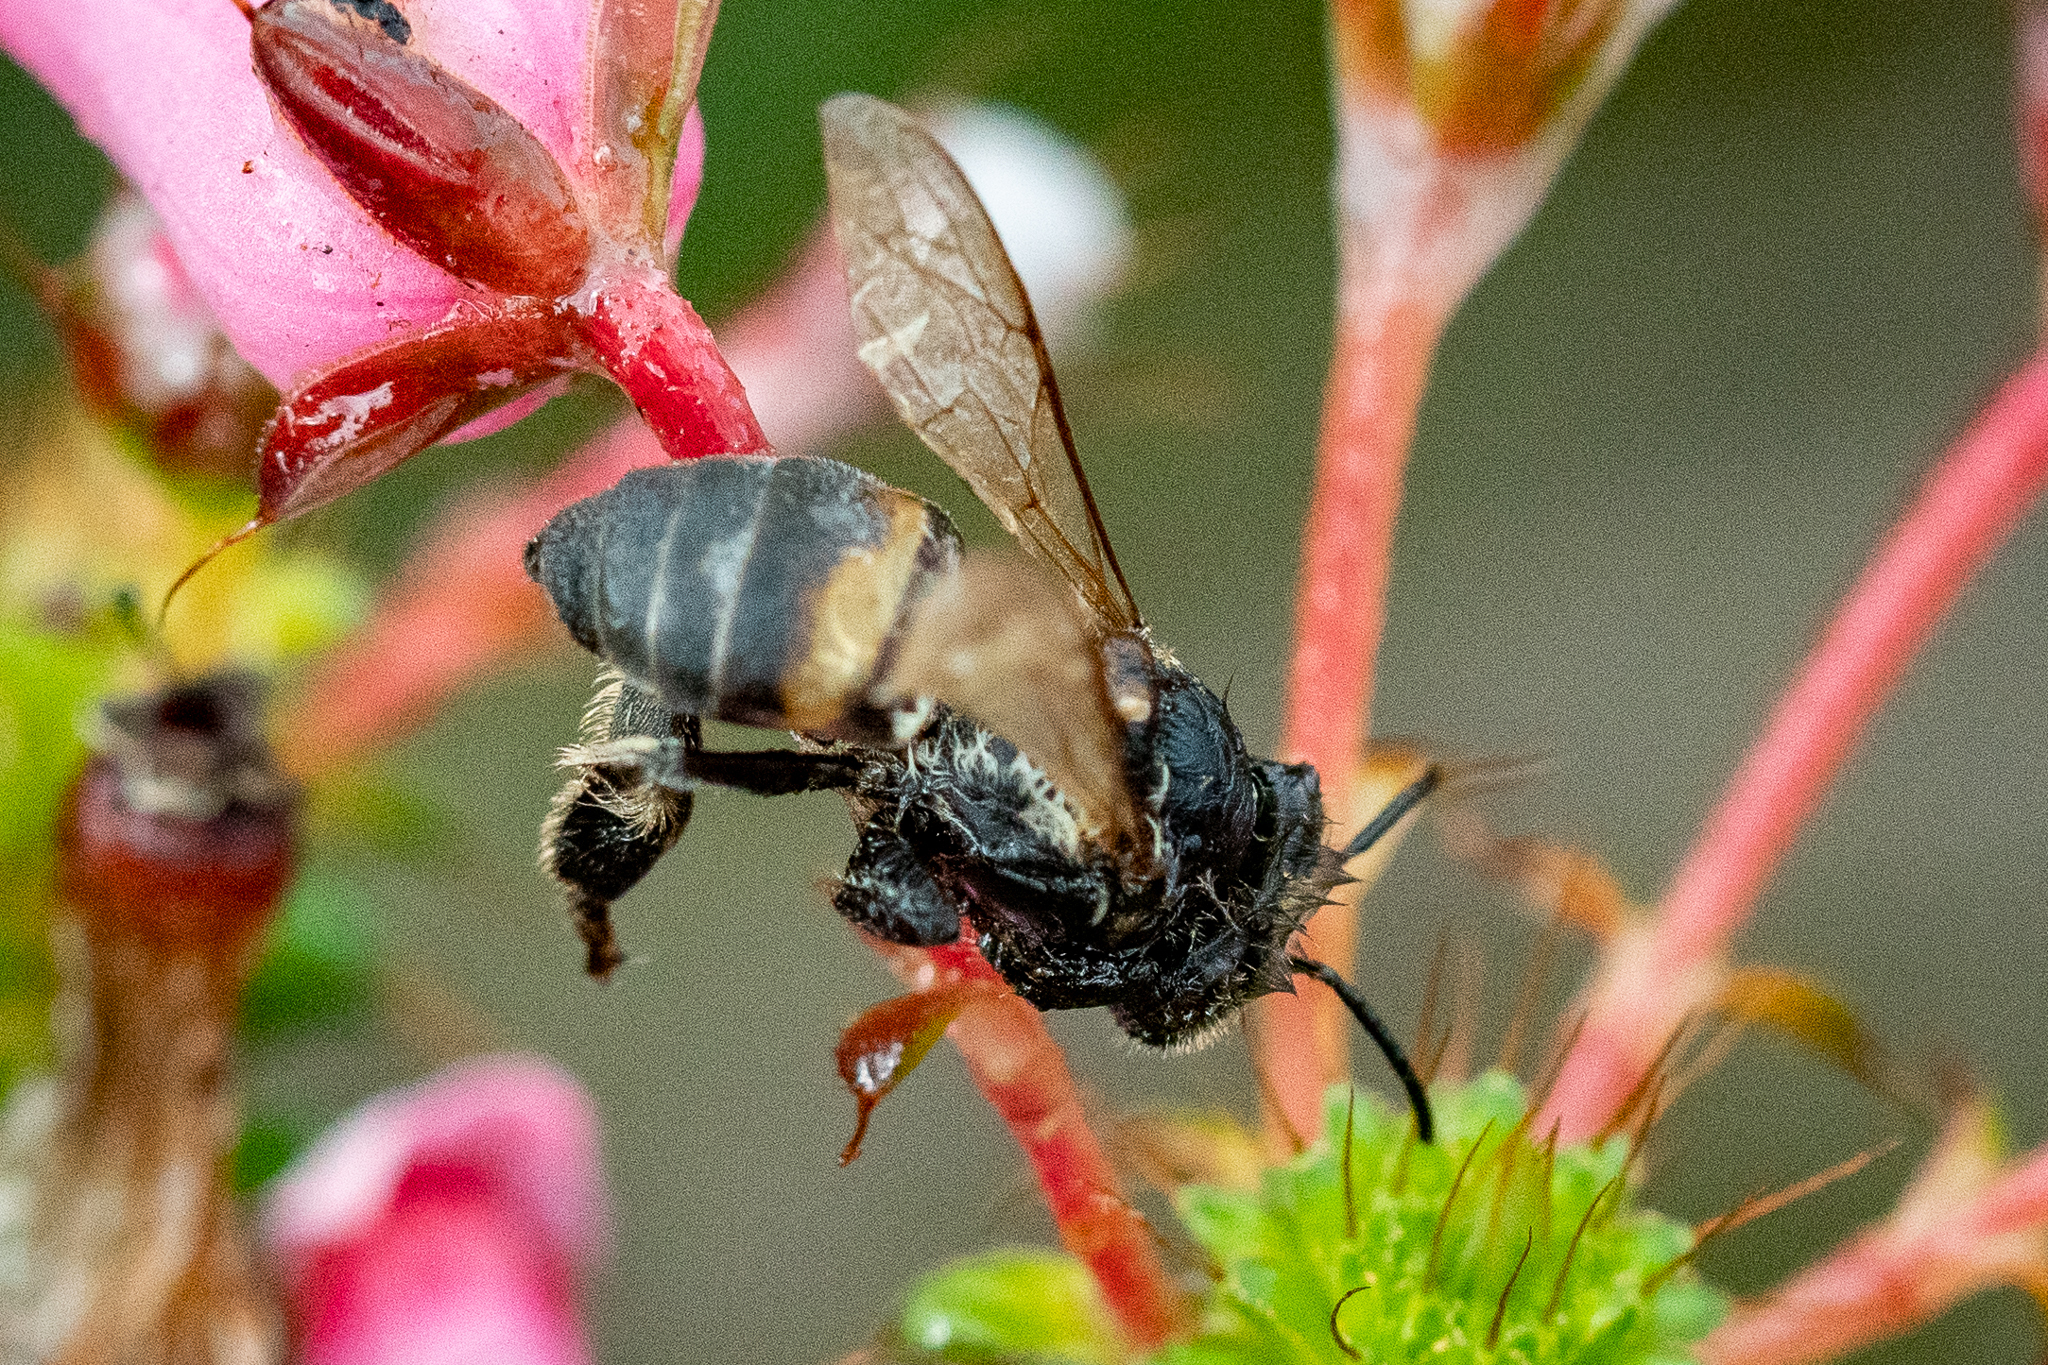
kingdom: Animalia
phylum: Arthropoda
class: Insecta
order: Hymenoptera
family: Apidae
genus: Apis
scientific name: Apis mellifera
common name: Honey bee
